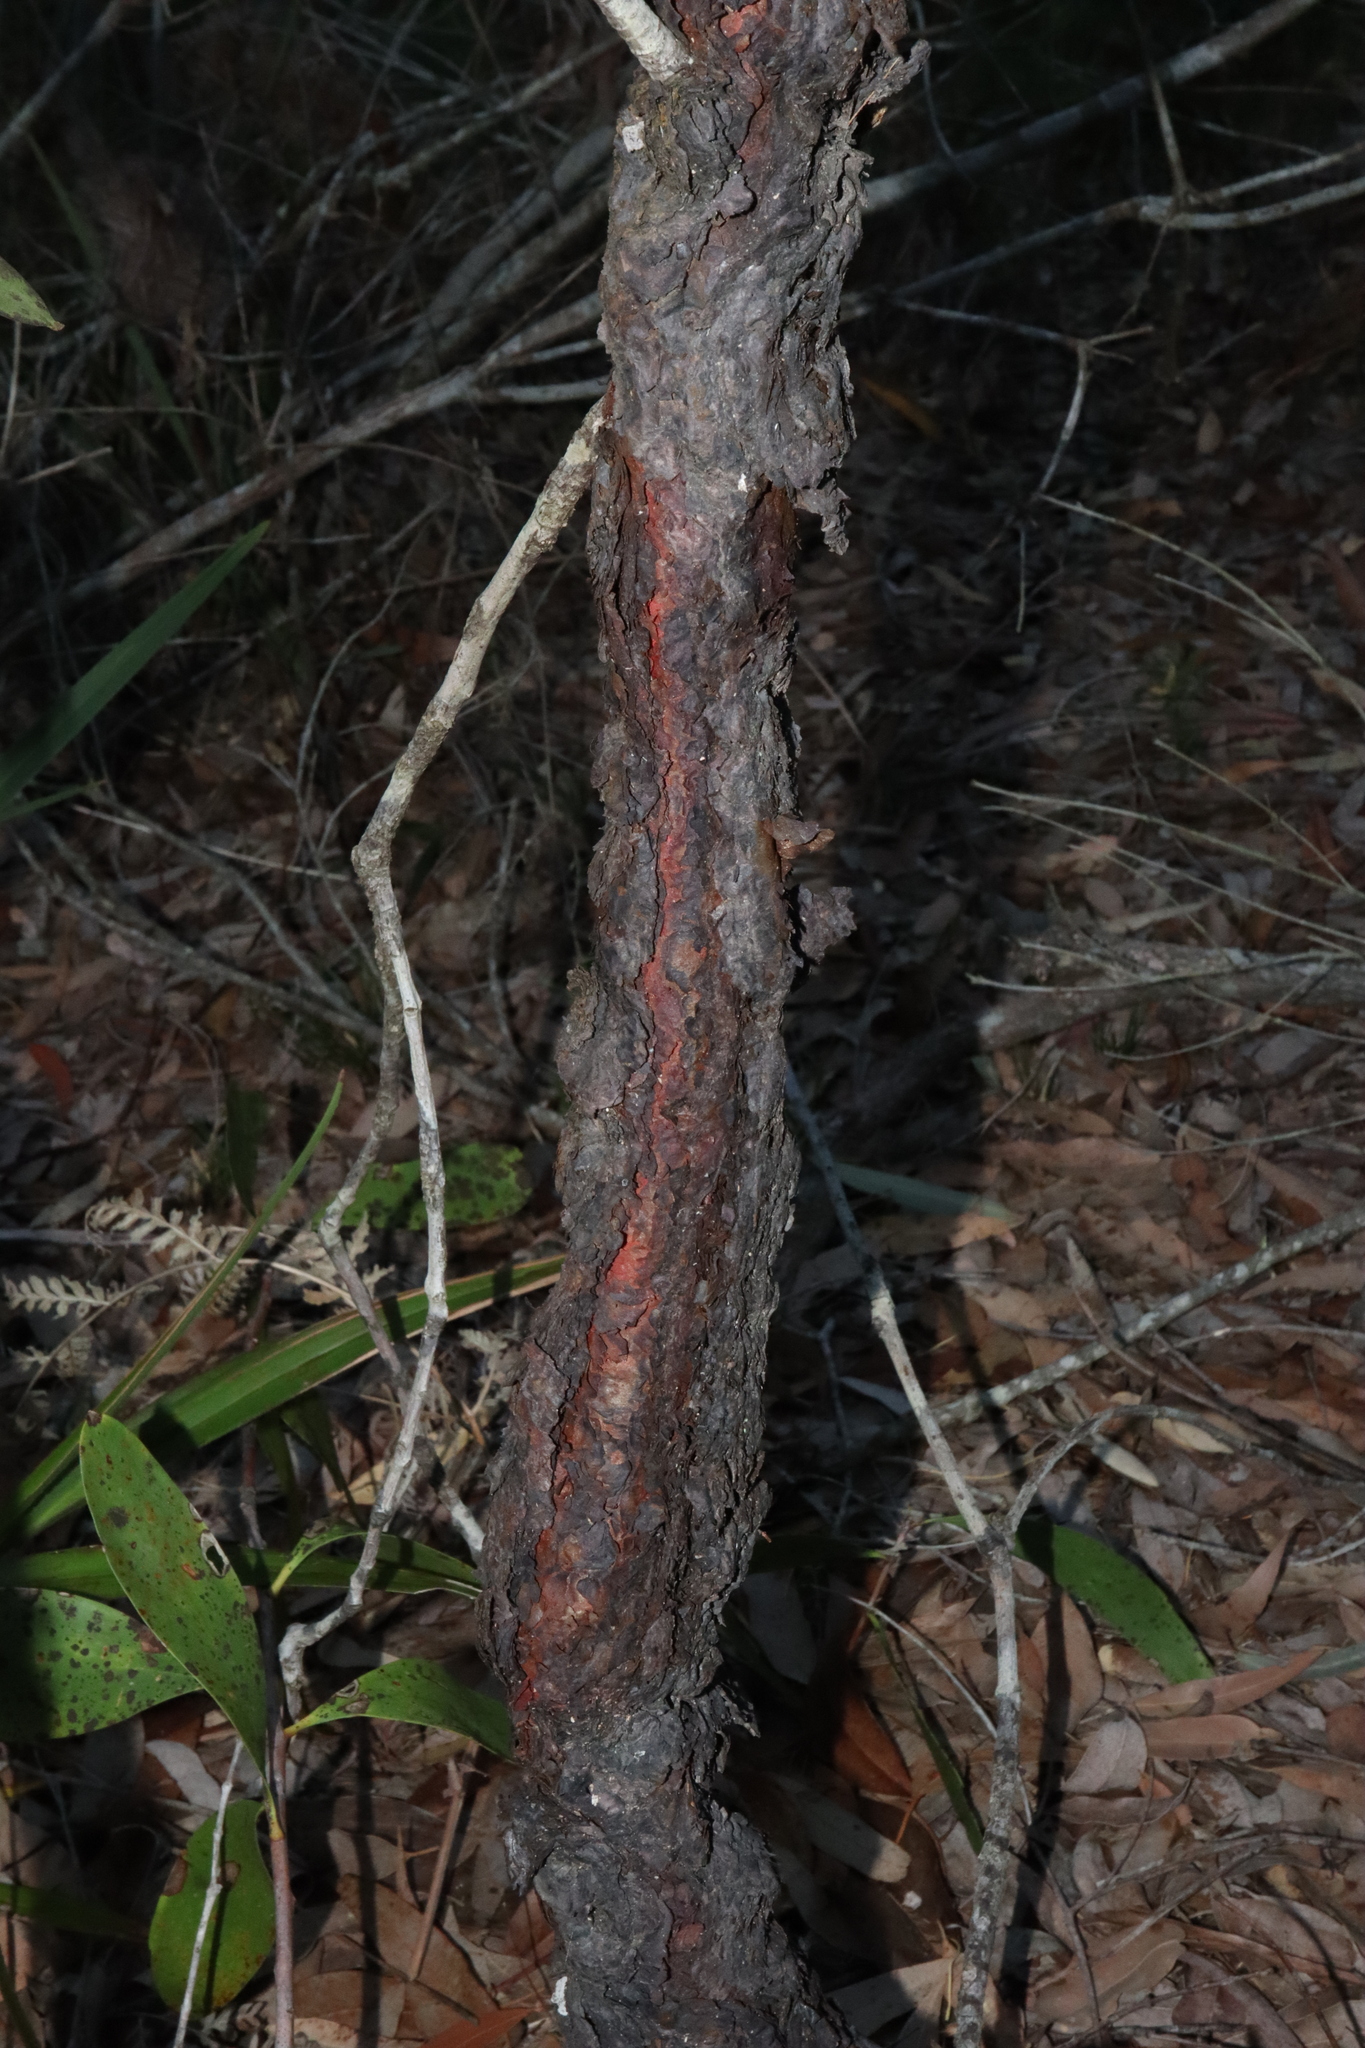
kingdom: Plantae
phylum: Tracheophyta
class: Magnoliopsida
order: Proteales
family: Proteaceae
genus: Persoonia
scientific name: Persoonia levis
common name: Smooth geebung
